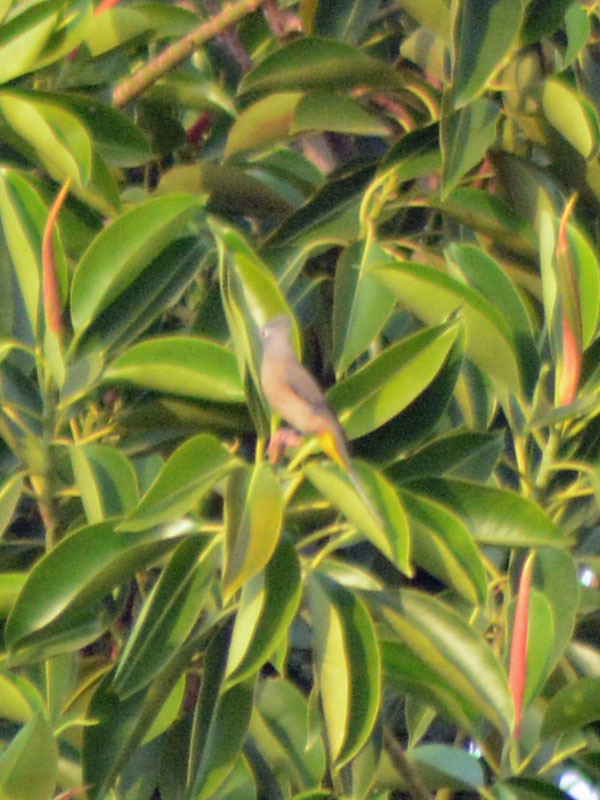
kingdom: Animalia
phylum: Chordata
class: Aves
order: Passeriformes
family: Ptilogonatidae
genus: Ptilogonys
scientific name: Ptilogonys cinereus
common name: Gray silky-flycatcher
